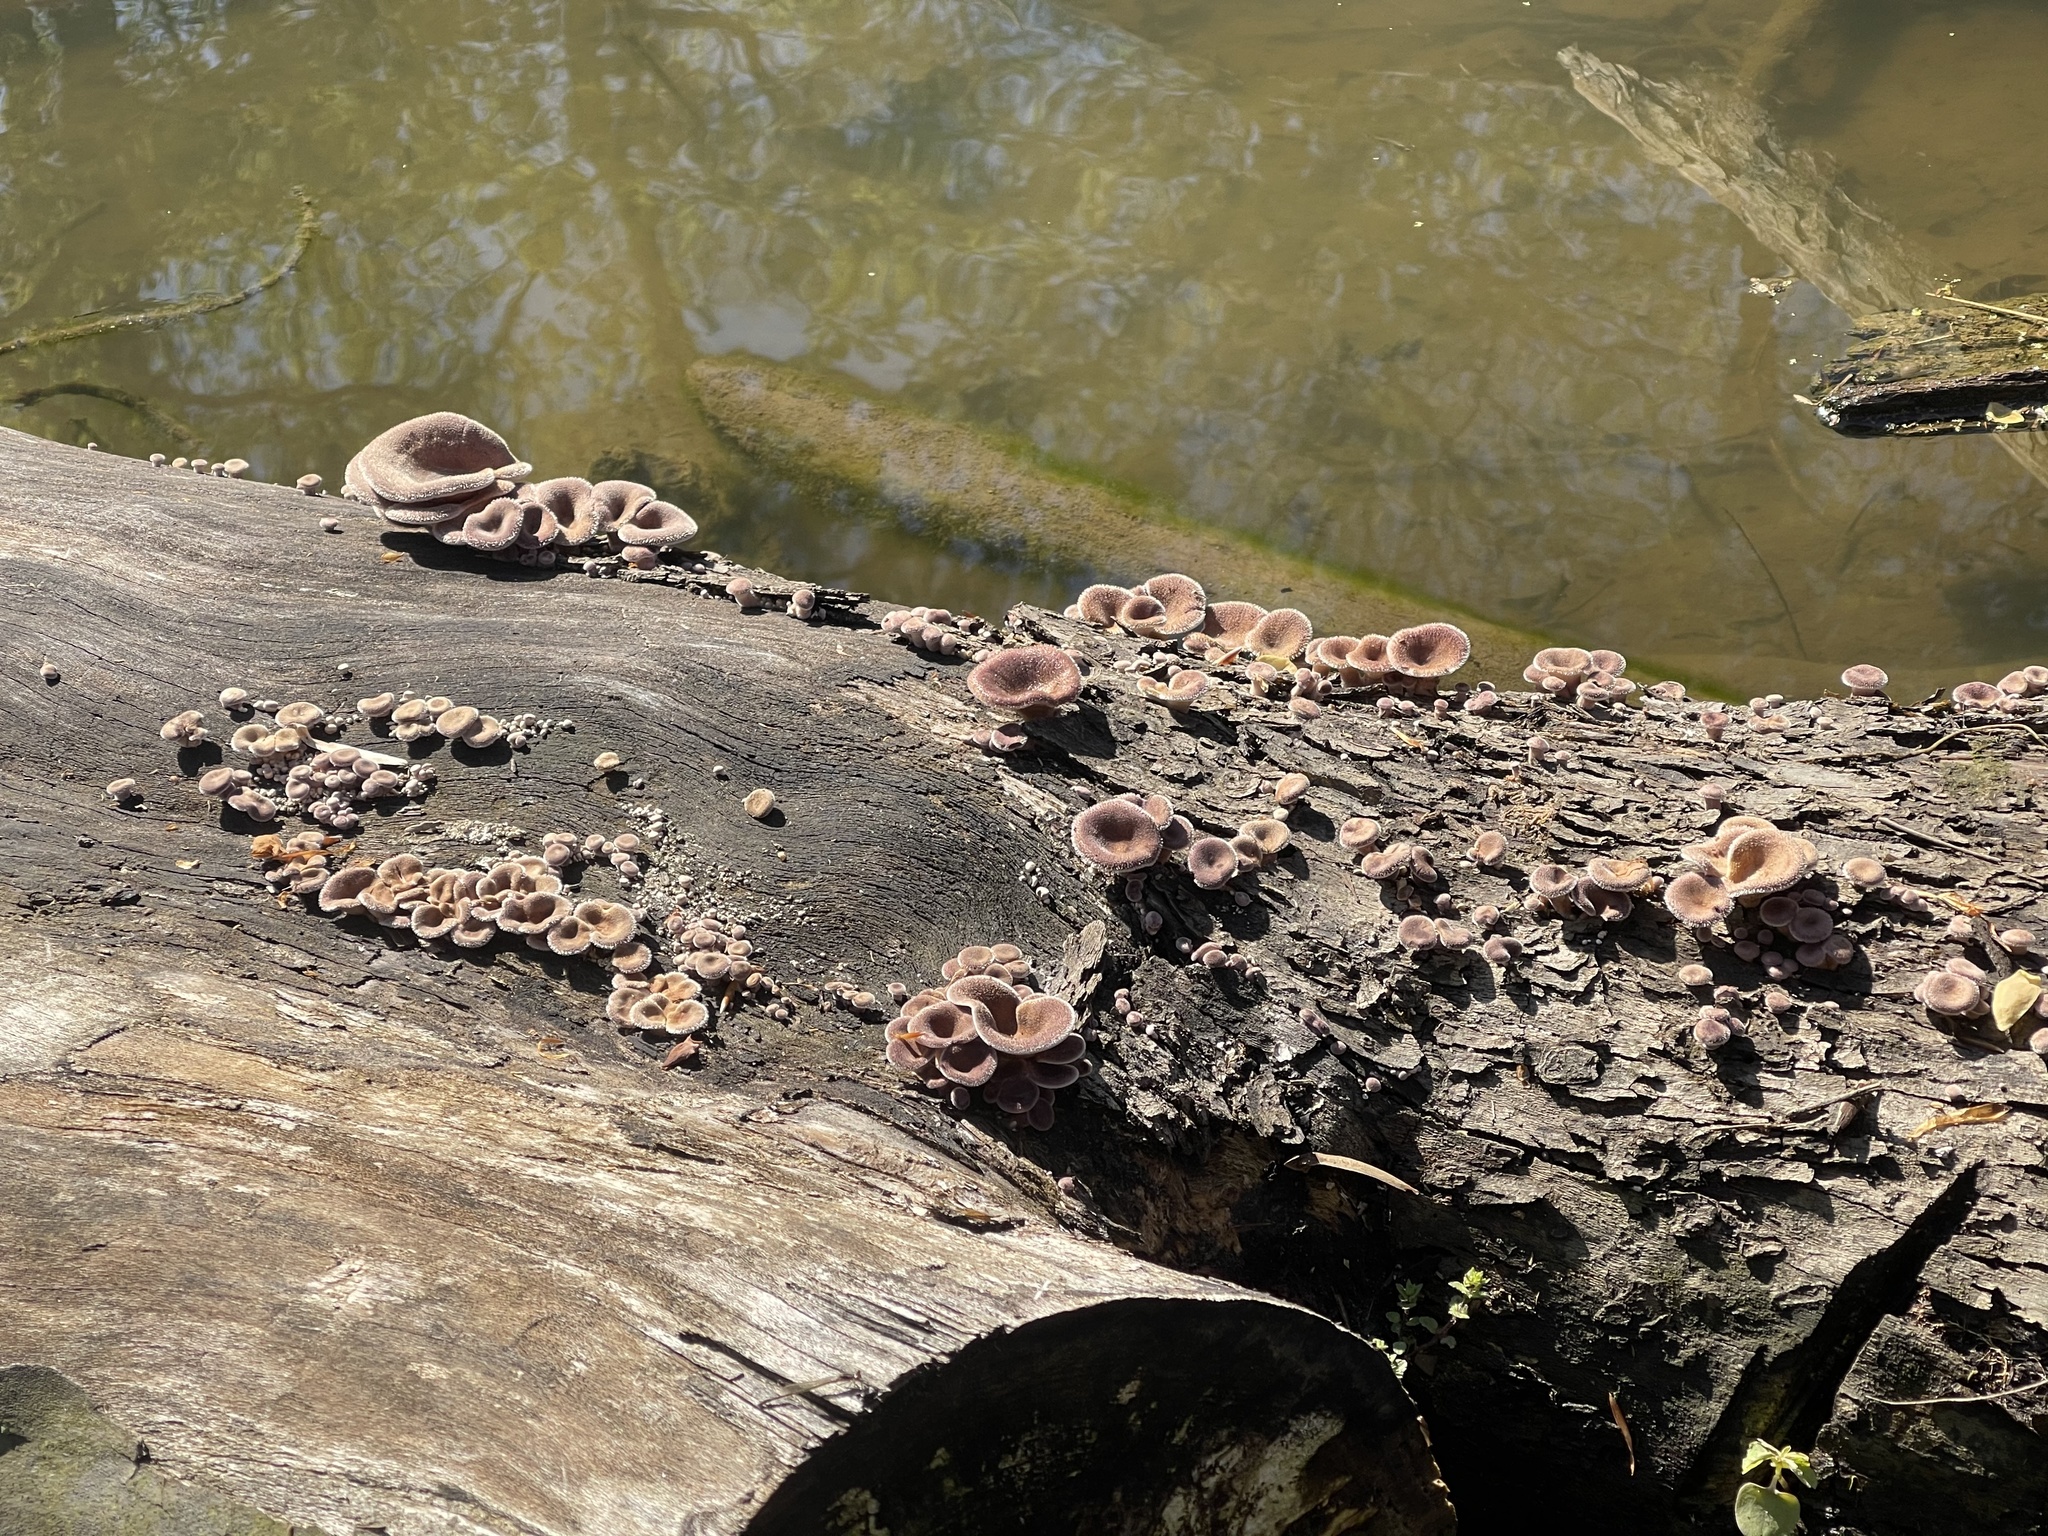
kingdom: Fungi
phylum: Basidiomycota
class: Agaricomycetes
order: Polyporales
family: Panaceae
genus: Panus
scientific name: Panus neostrigosus
